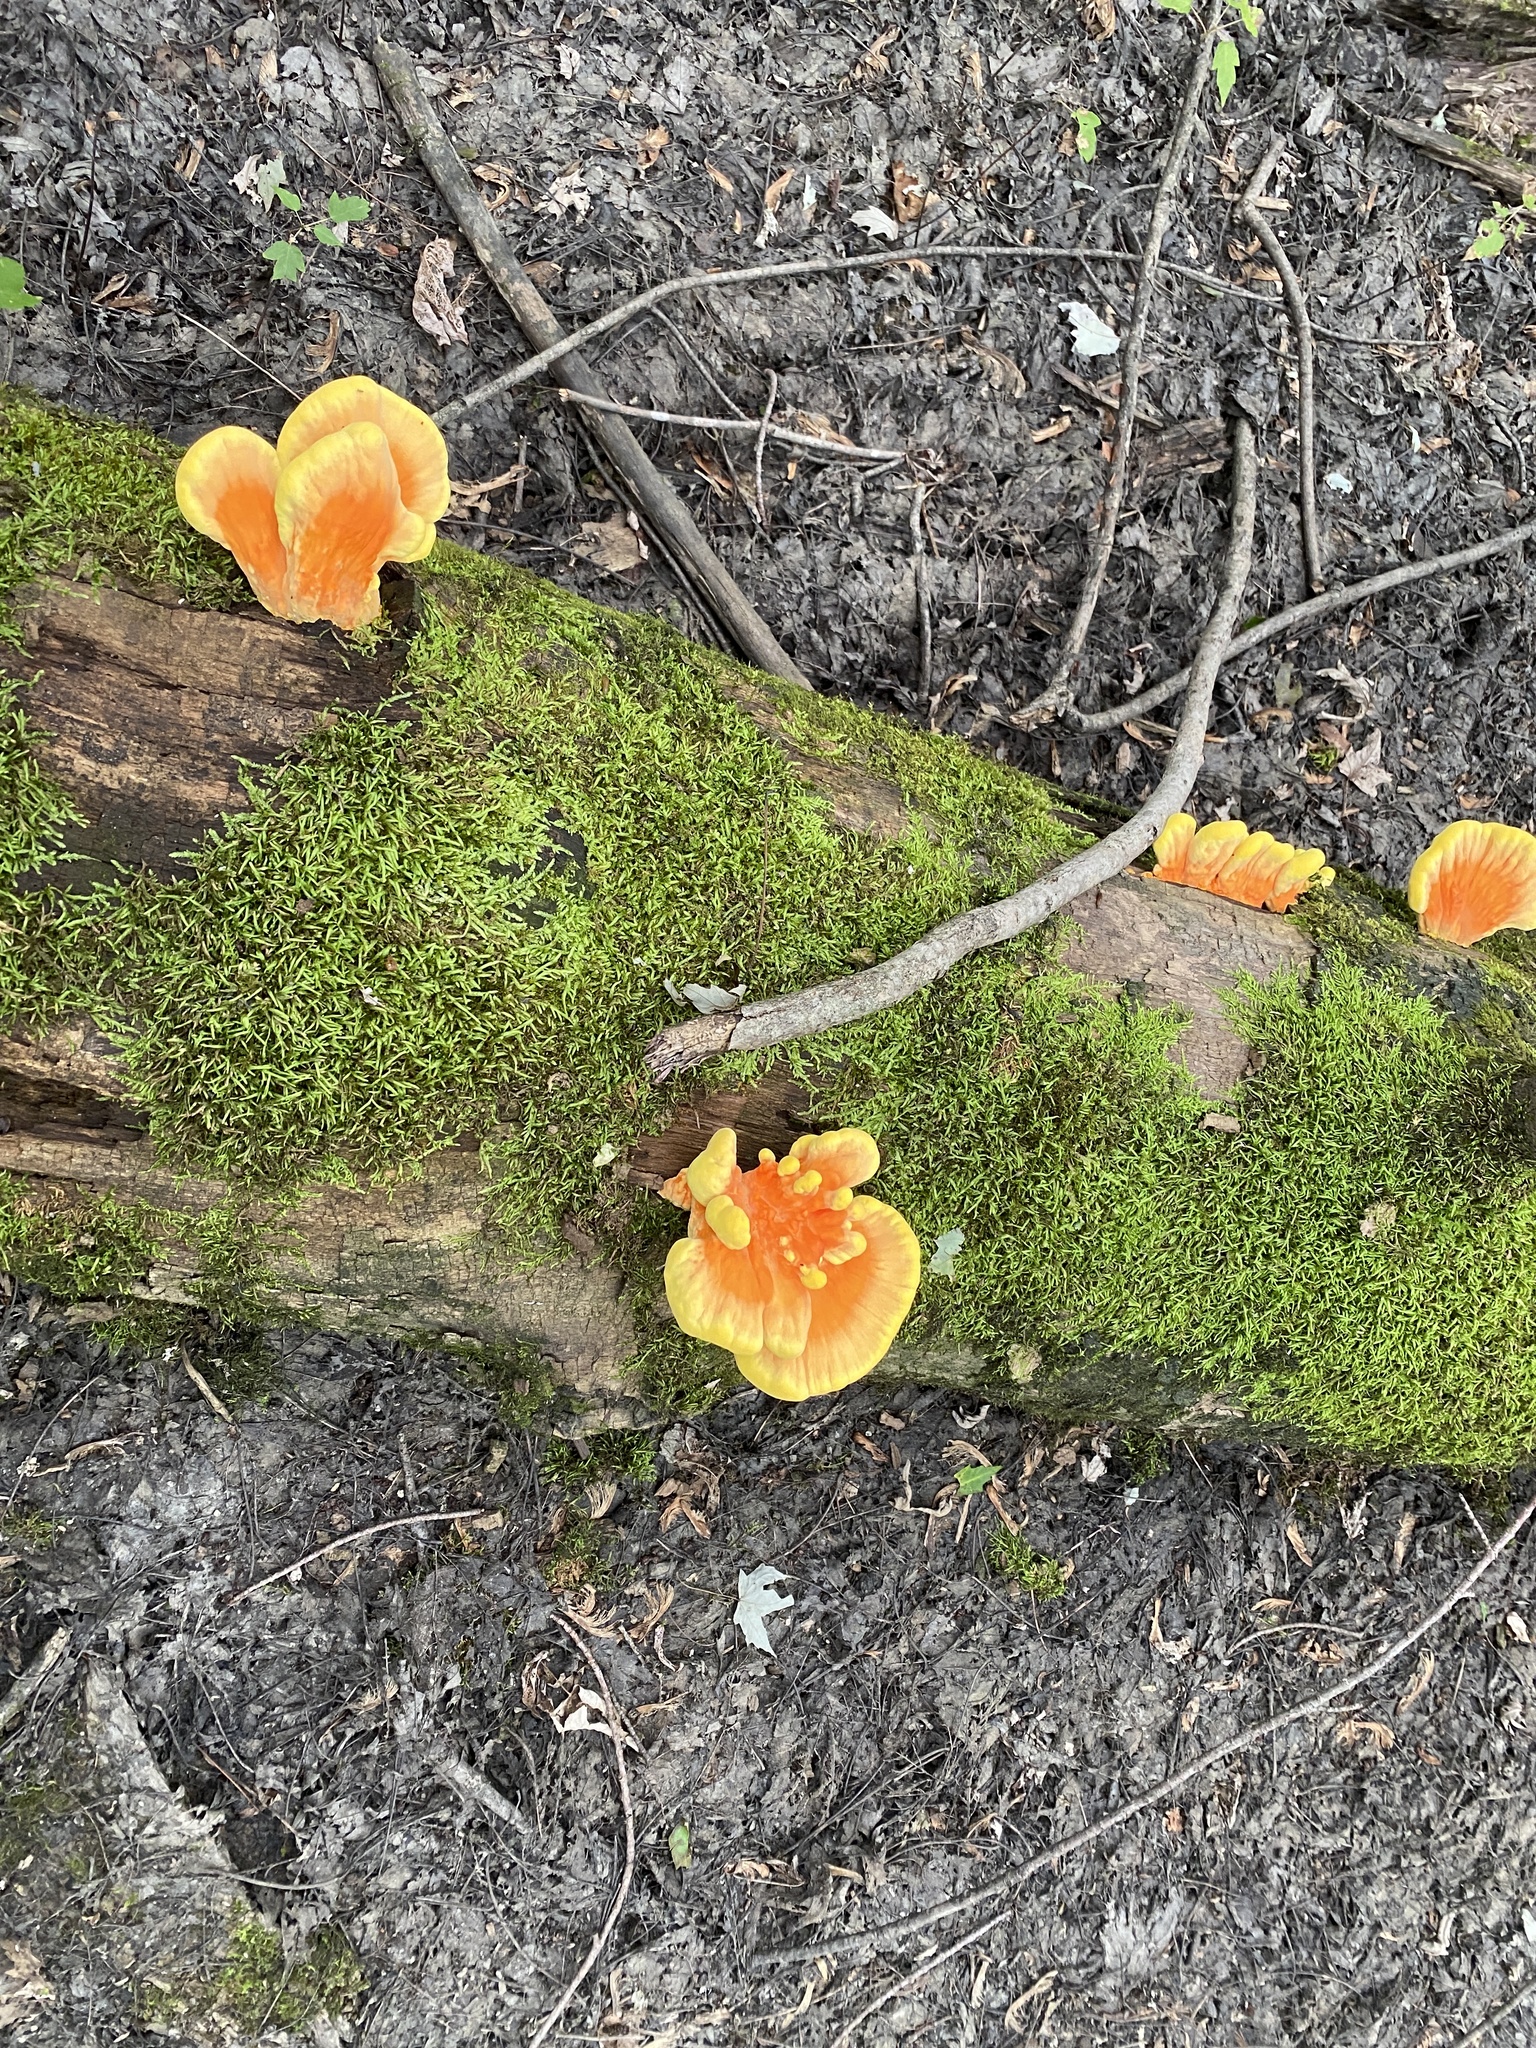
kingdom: Fungi
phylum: Basidiomycota
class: Agaricomycetes
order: Polyporales
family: Laetiporaceae
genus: Laetiporus
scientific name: Laetiporus sulphureus
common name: Chicken of the woods
